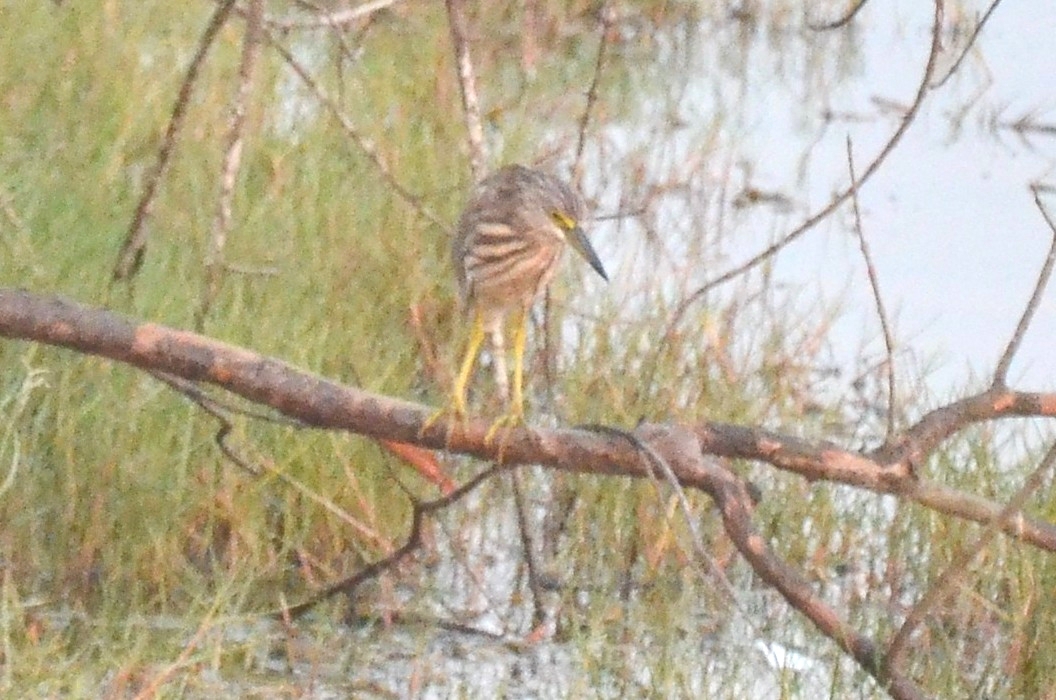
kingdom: Animalia
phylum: Chordata
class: Aves
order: Pelecaniformes
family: Ardeidae
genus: Ardeola
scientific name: Ardeola grayii
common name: Indian pond heron
